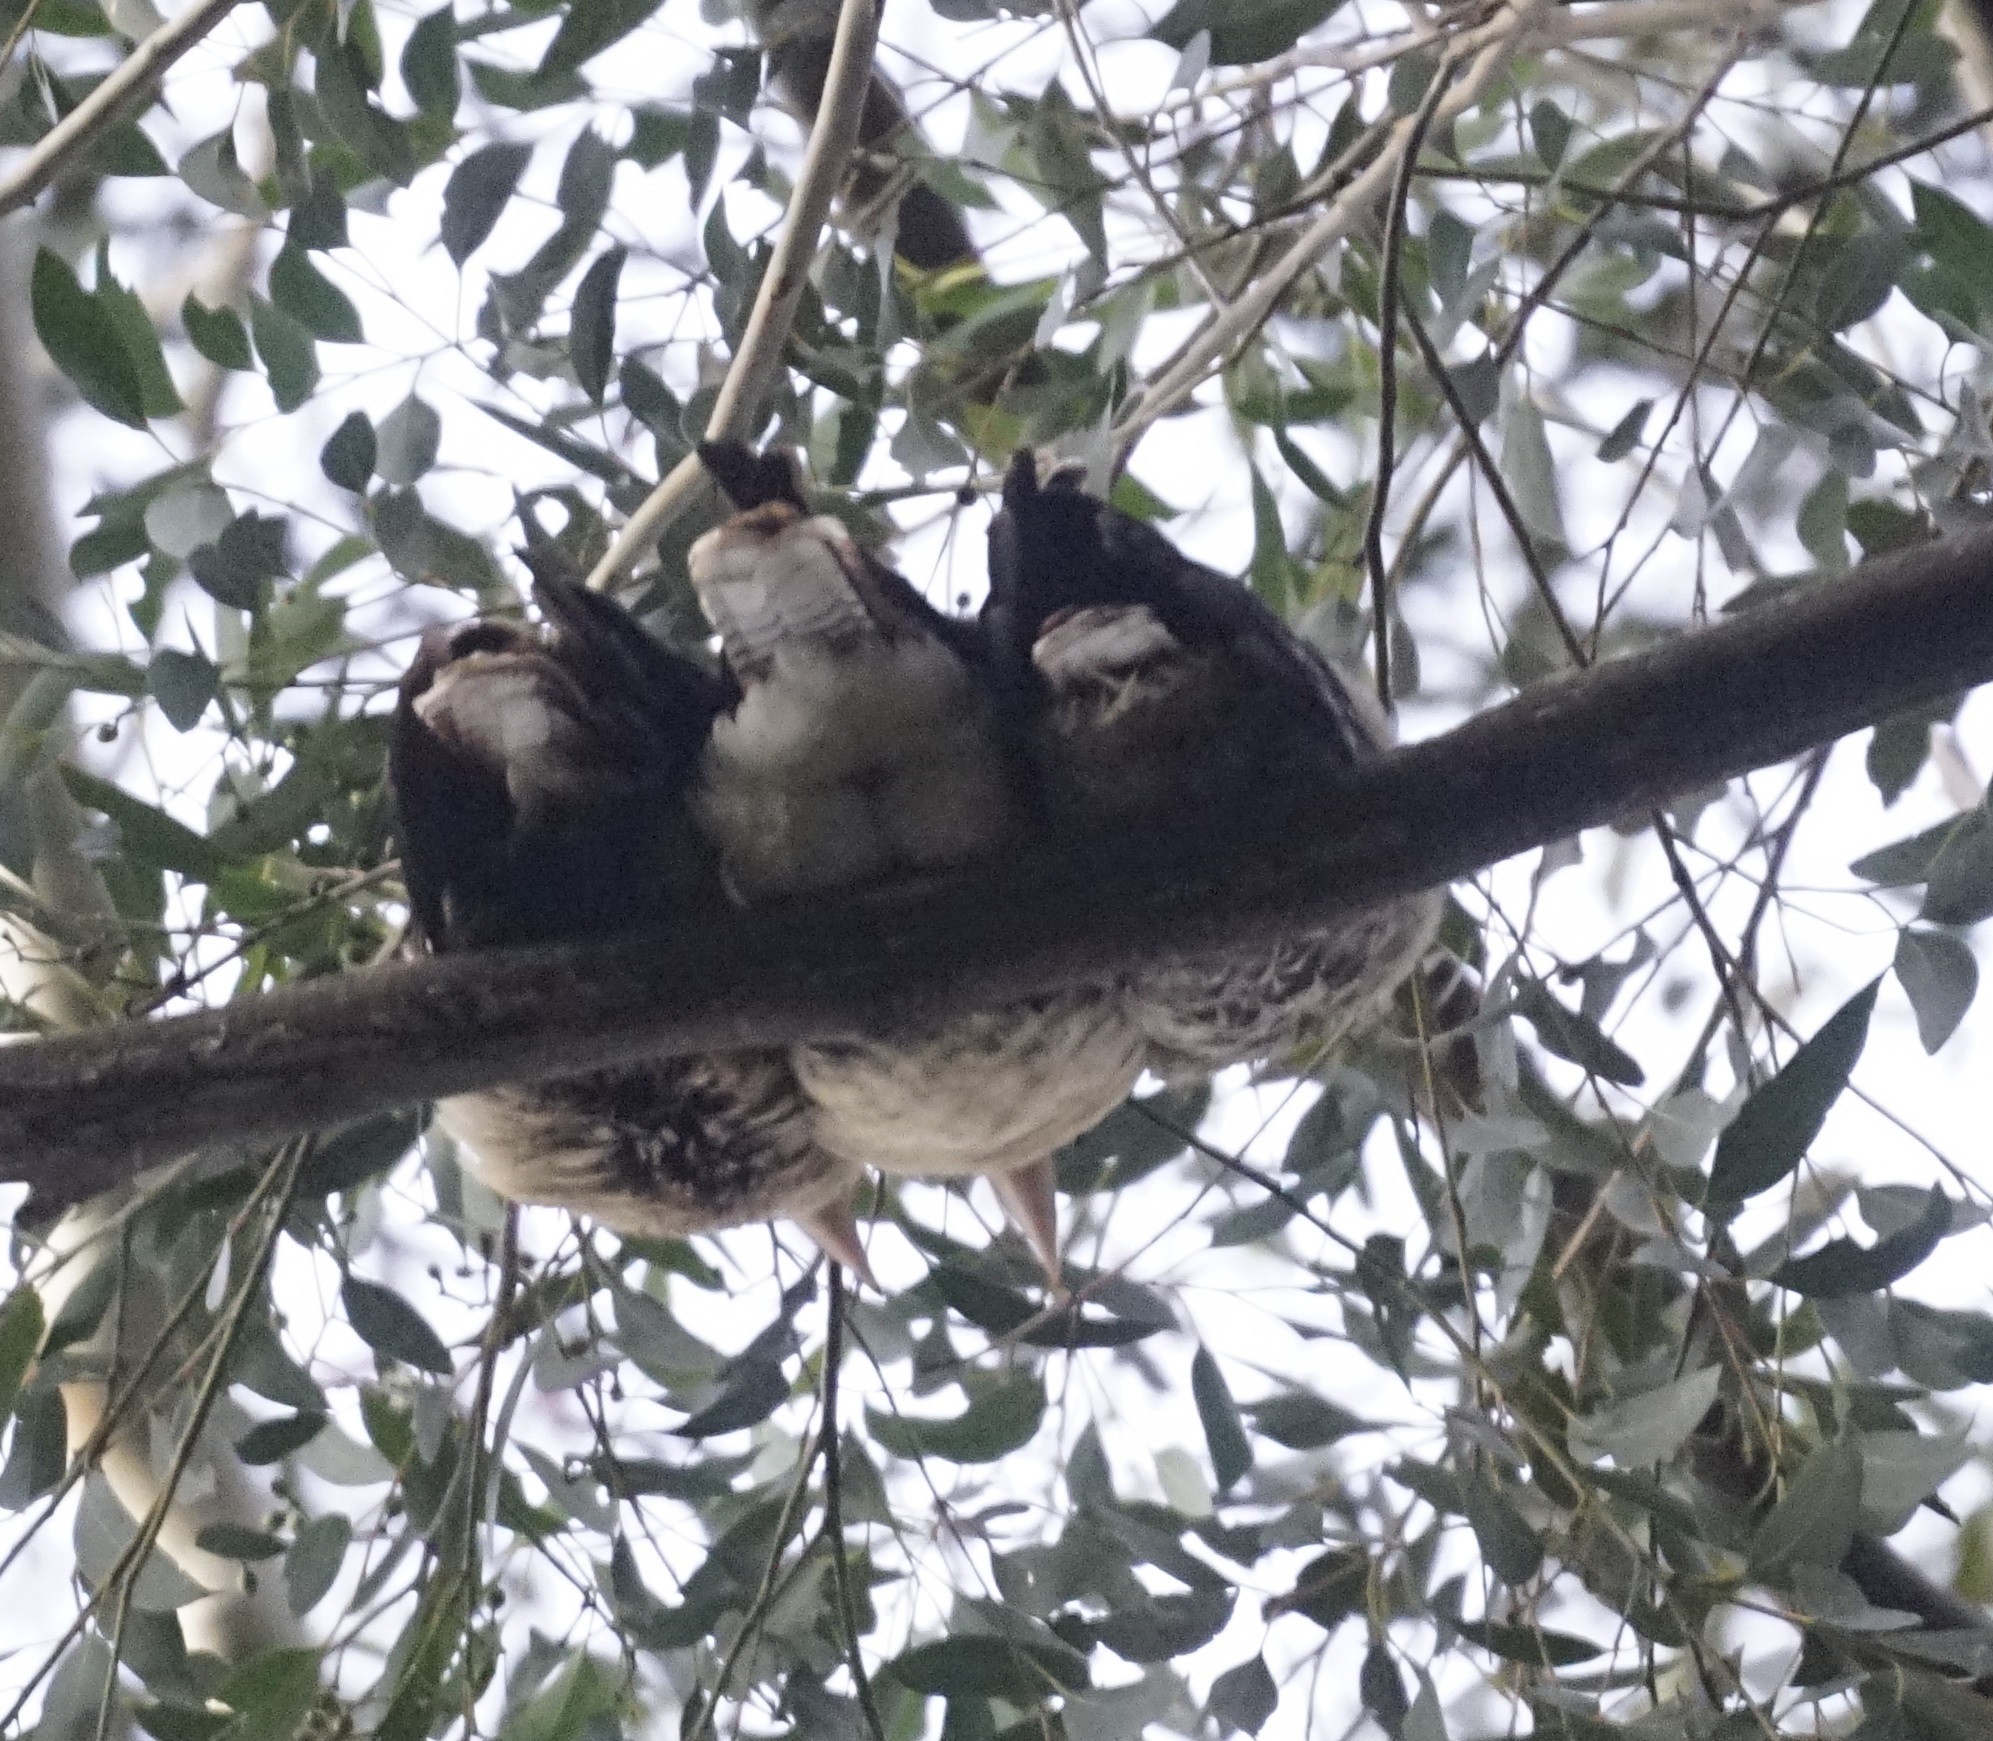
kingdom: Animalia
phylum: Chordata
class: Aves
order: Coraciiformes
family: Alcedinidae
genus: Dacelo
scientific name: Dacelo novaeguineae
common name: Laughing kookaburra
